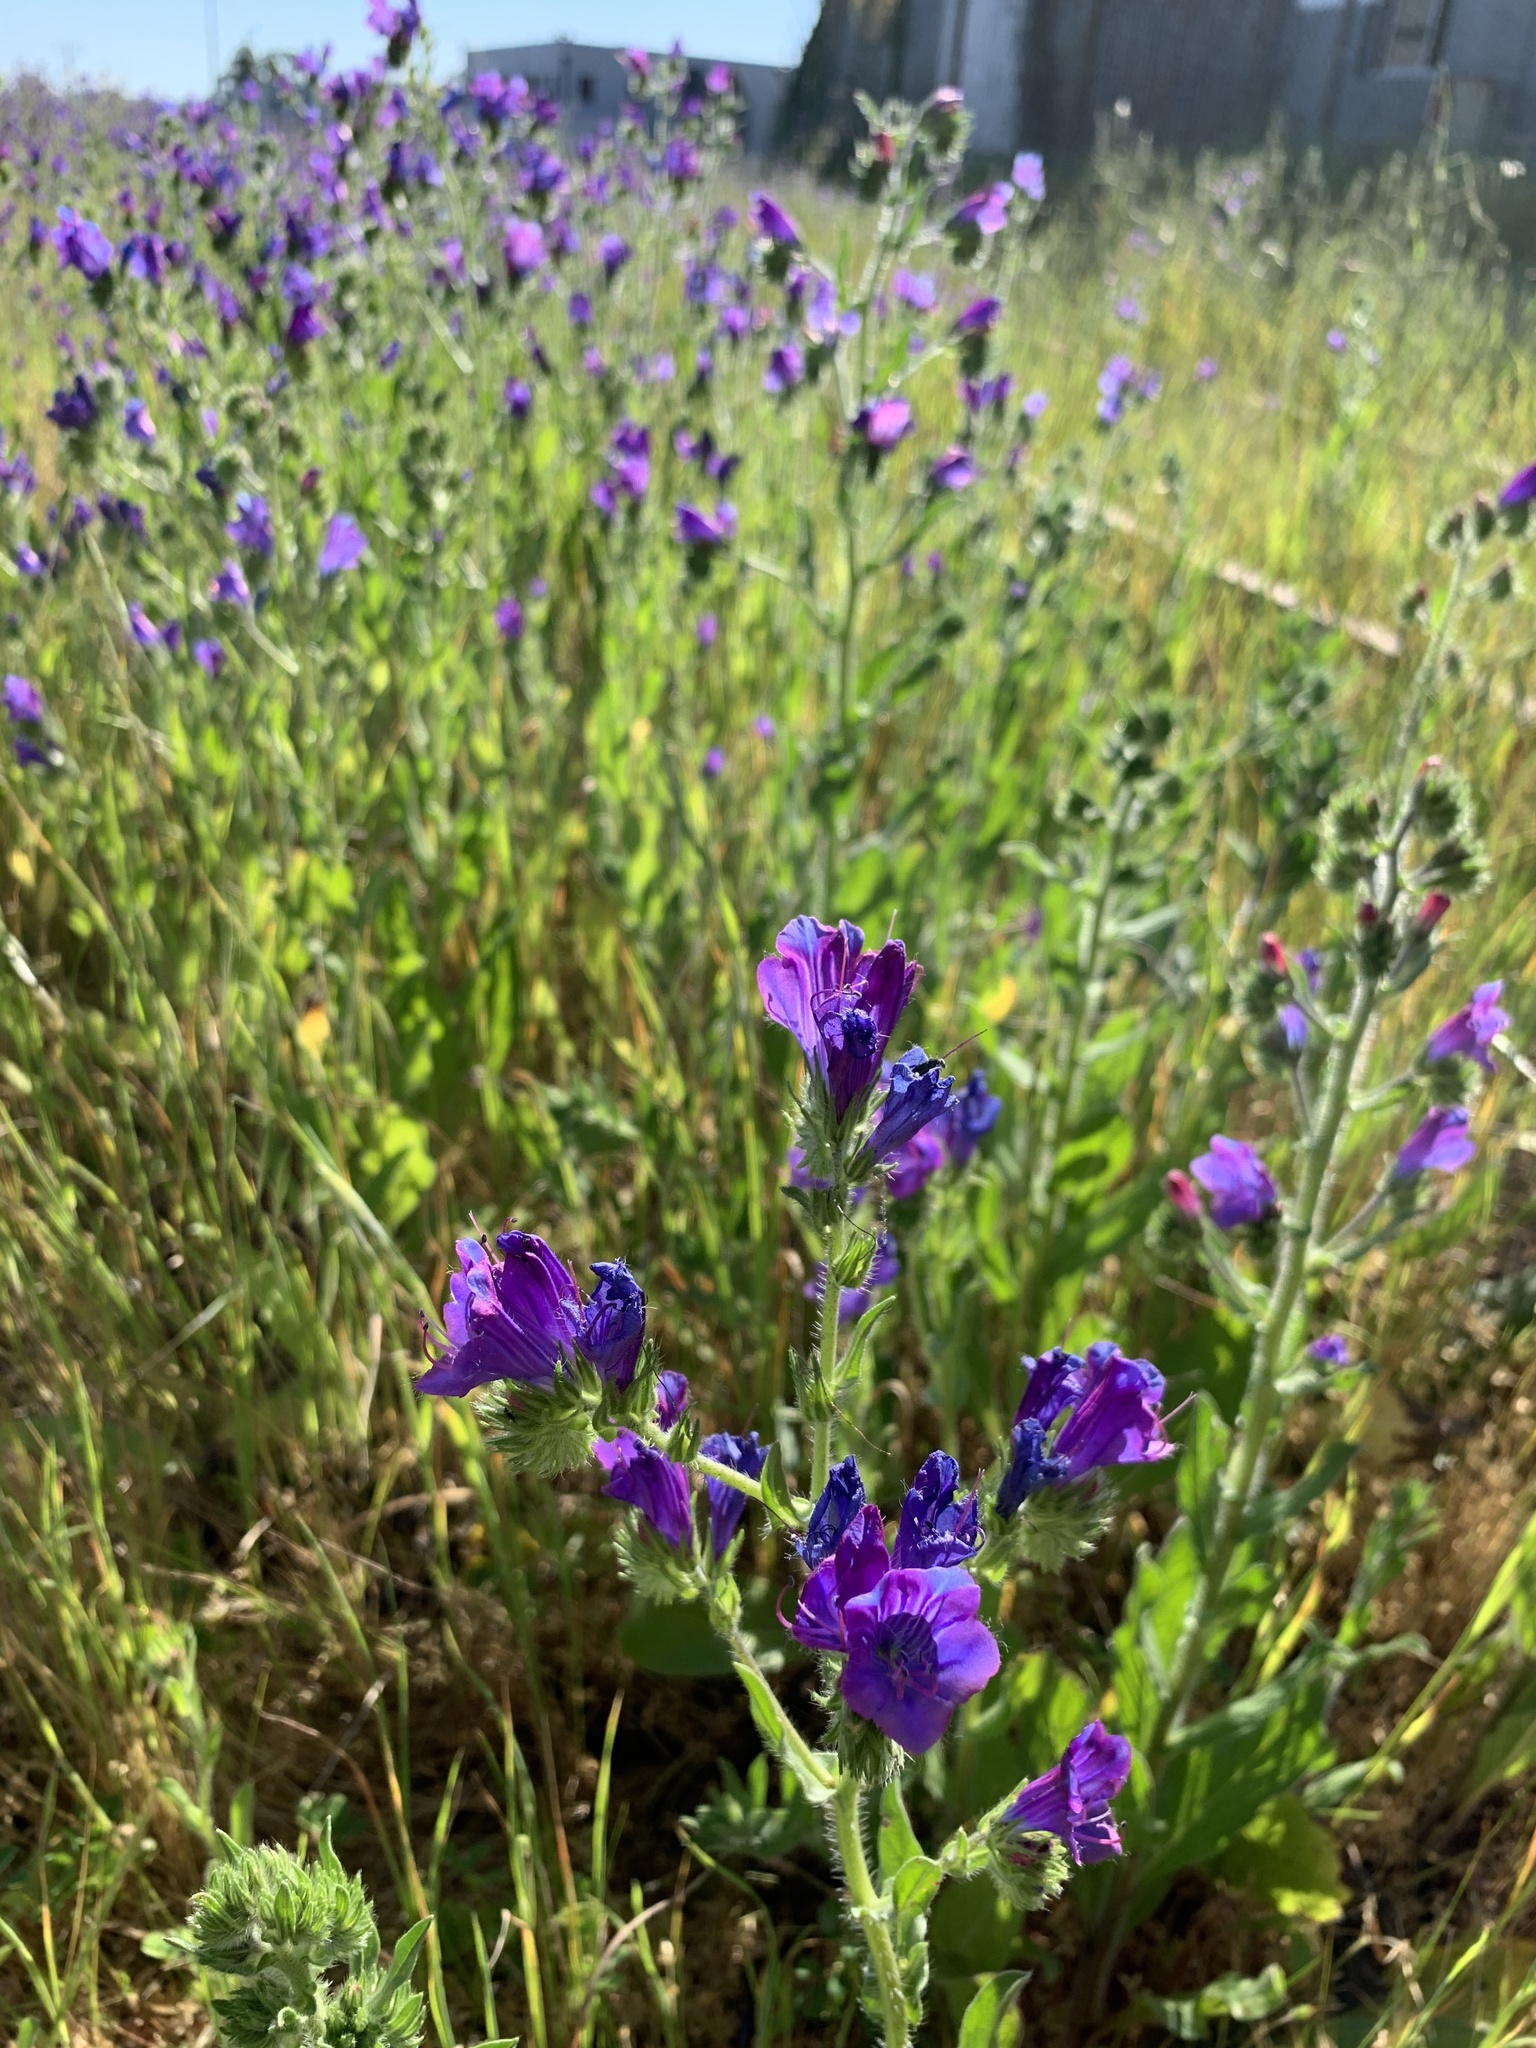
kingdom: Plantae
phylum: Tracheophyta
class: Magnoliopsida
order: Boraginales
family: Boraginaceae
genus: Echium
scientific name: Echium plantagineum
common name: Purple viper's-bugloss
